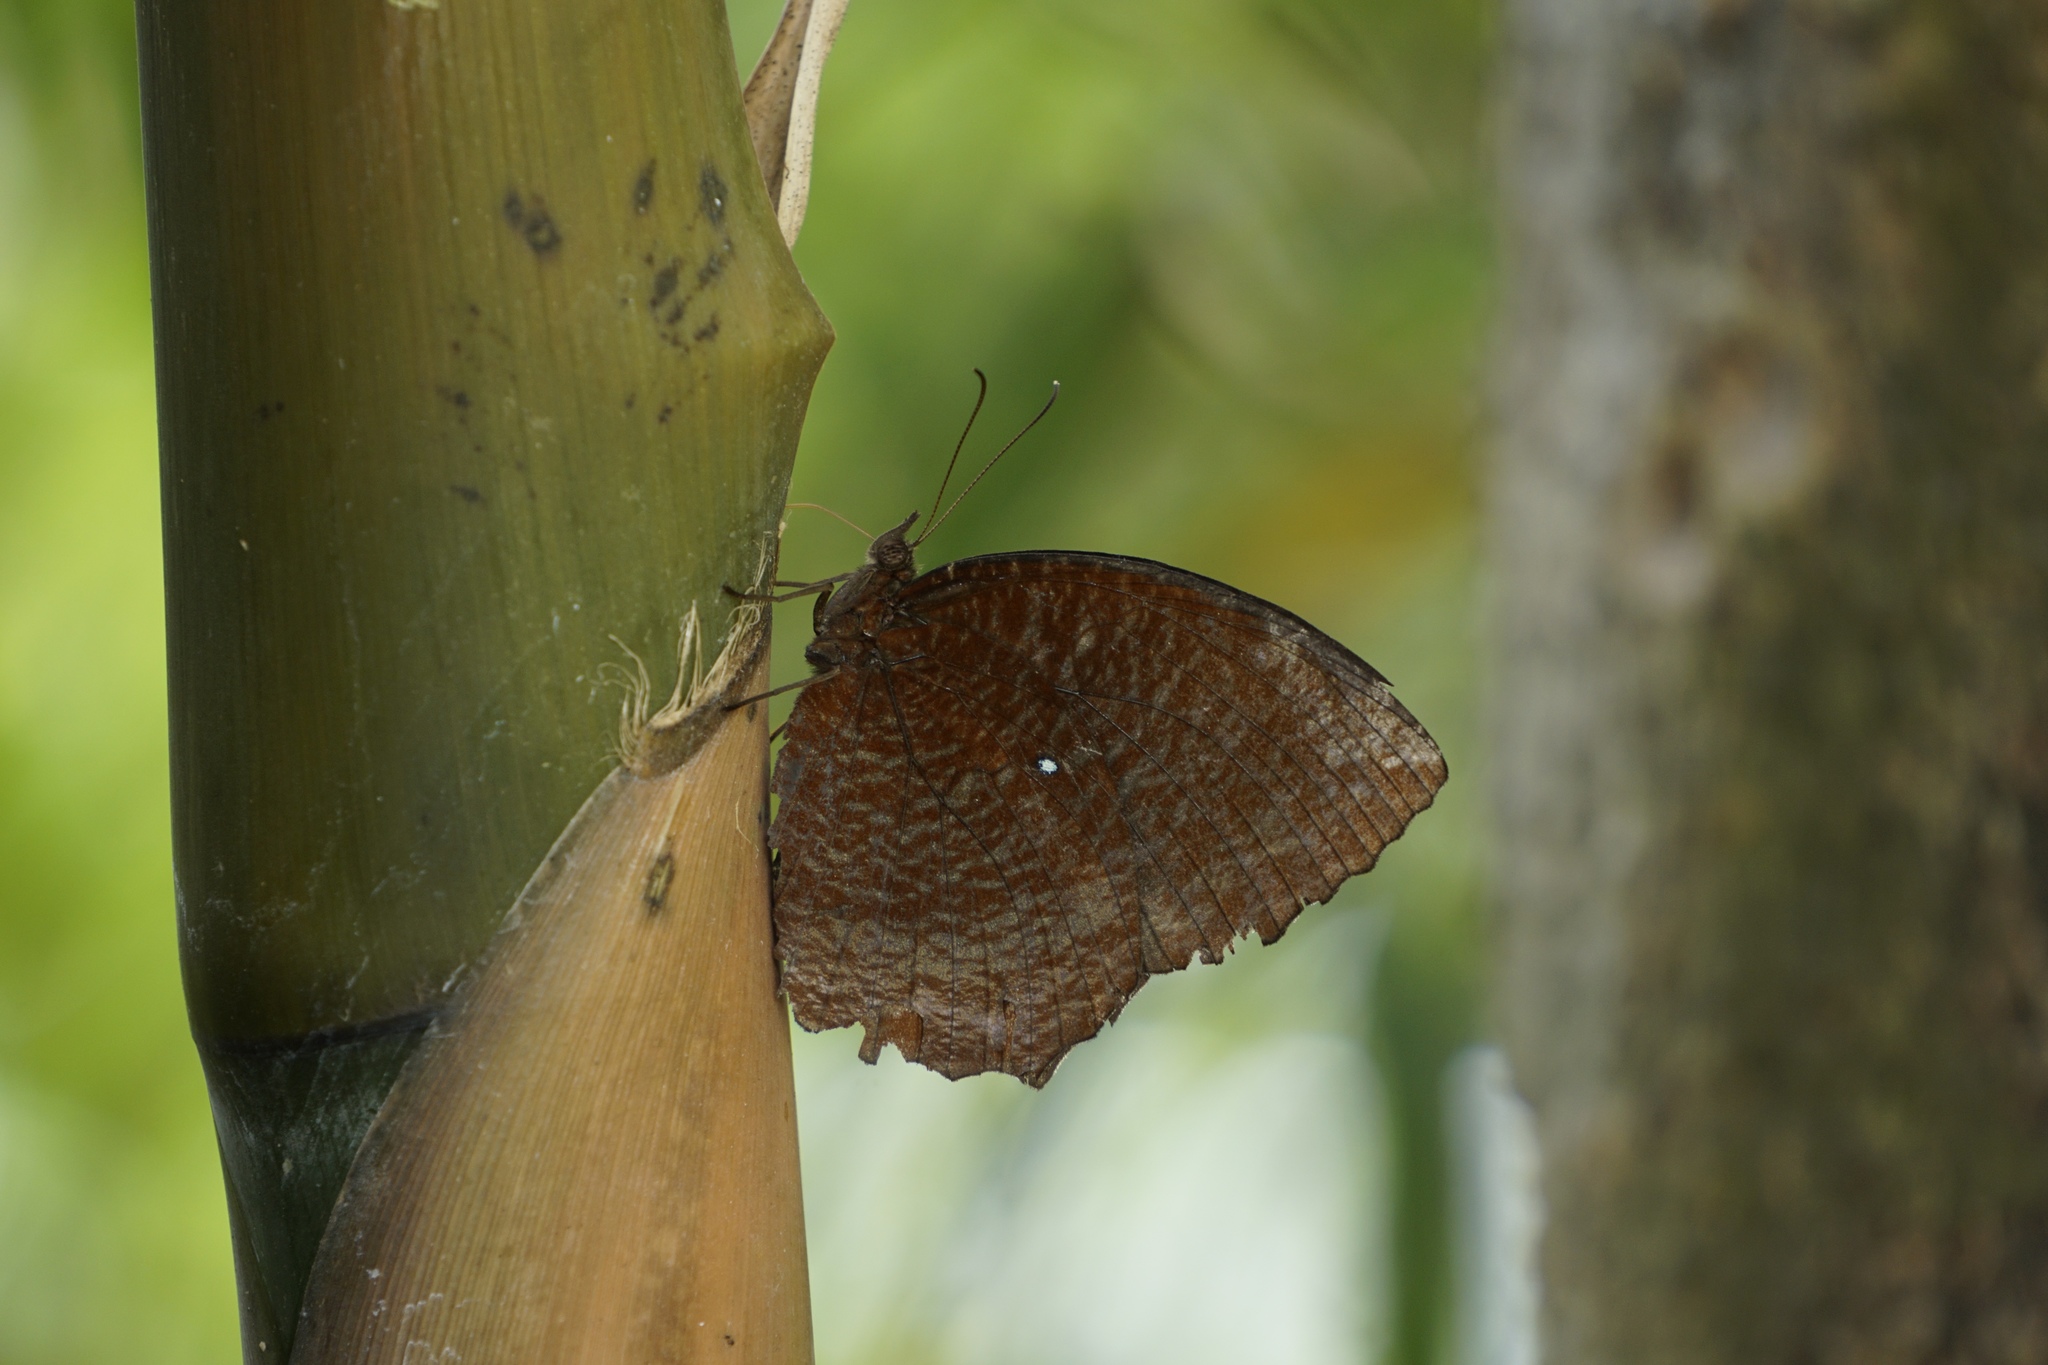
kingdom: Animalia
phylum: Arthropoda
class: Insecta
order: Lepidoptera
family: Nymphalidae
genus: Elymnias
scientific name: Elymnias hypermnestra
